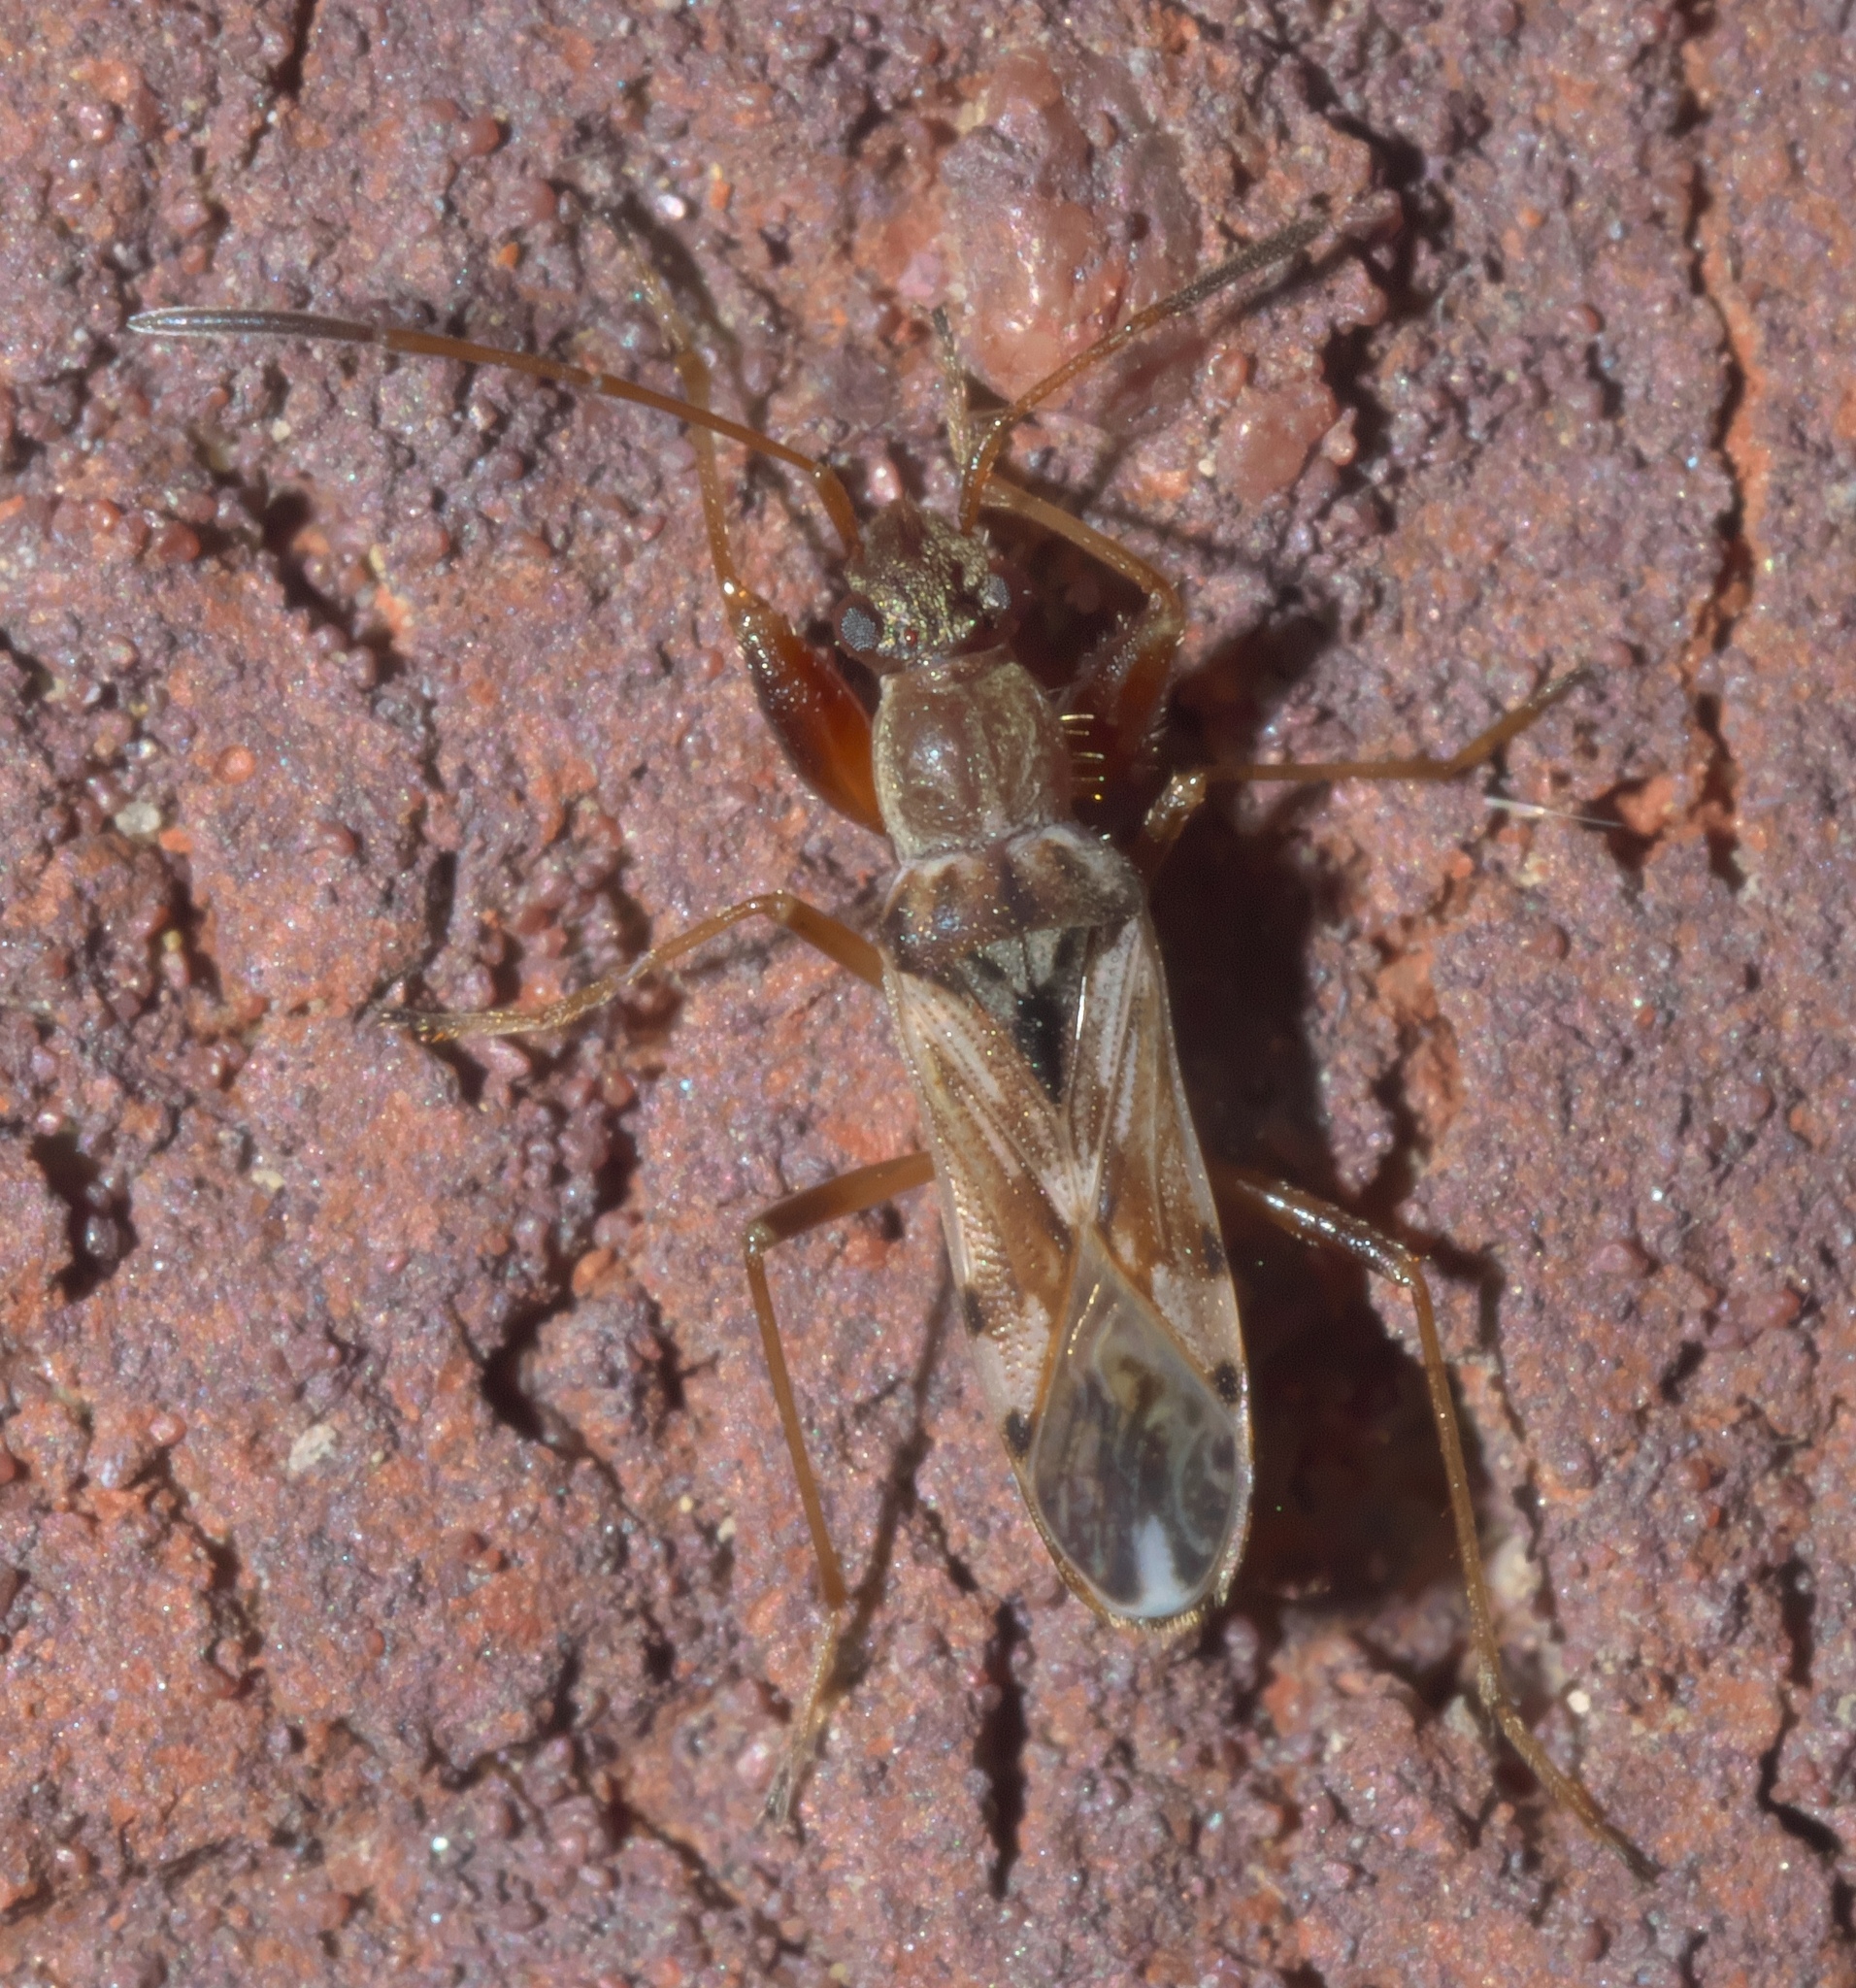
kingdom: Animalia
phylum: Arthropoda
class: Insecta
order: Hemiptera
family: Rhyparochromidae
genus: Neopamera
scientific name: Neopamera bilobata
